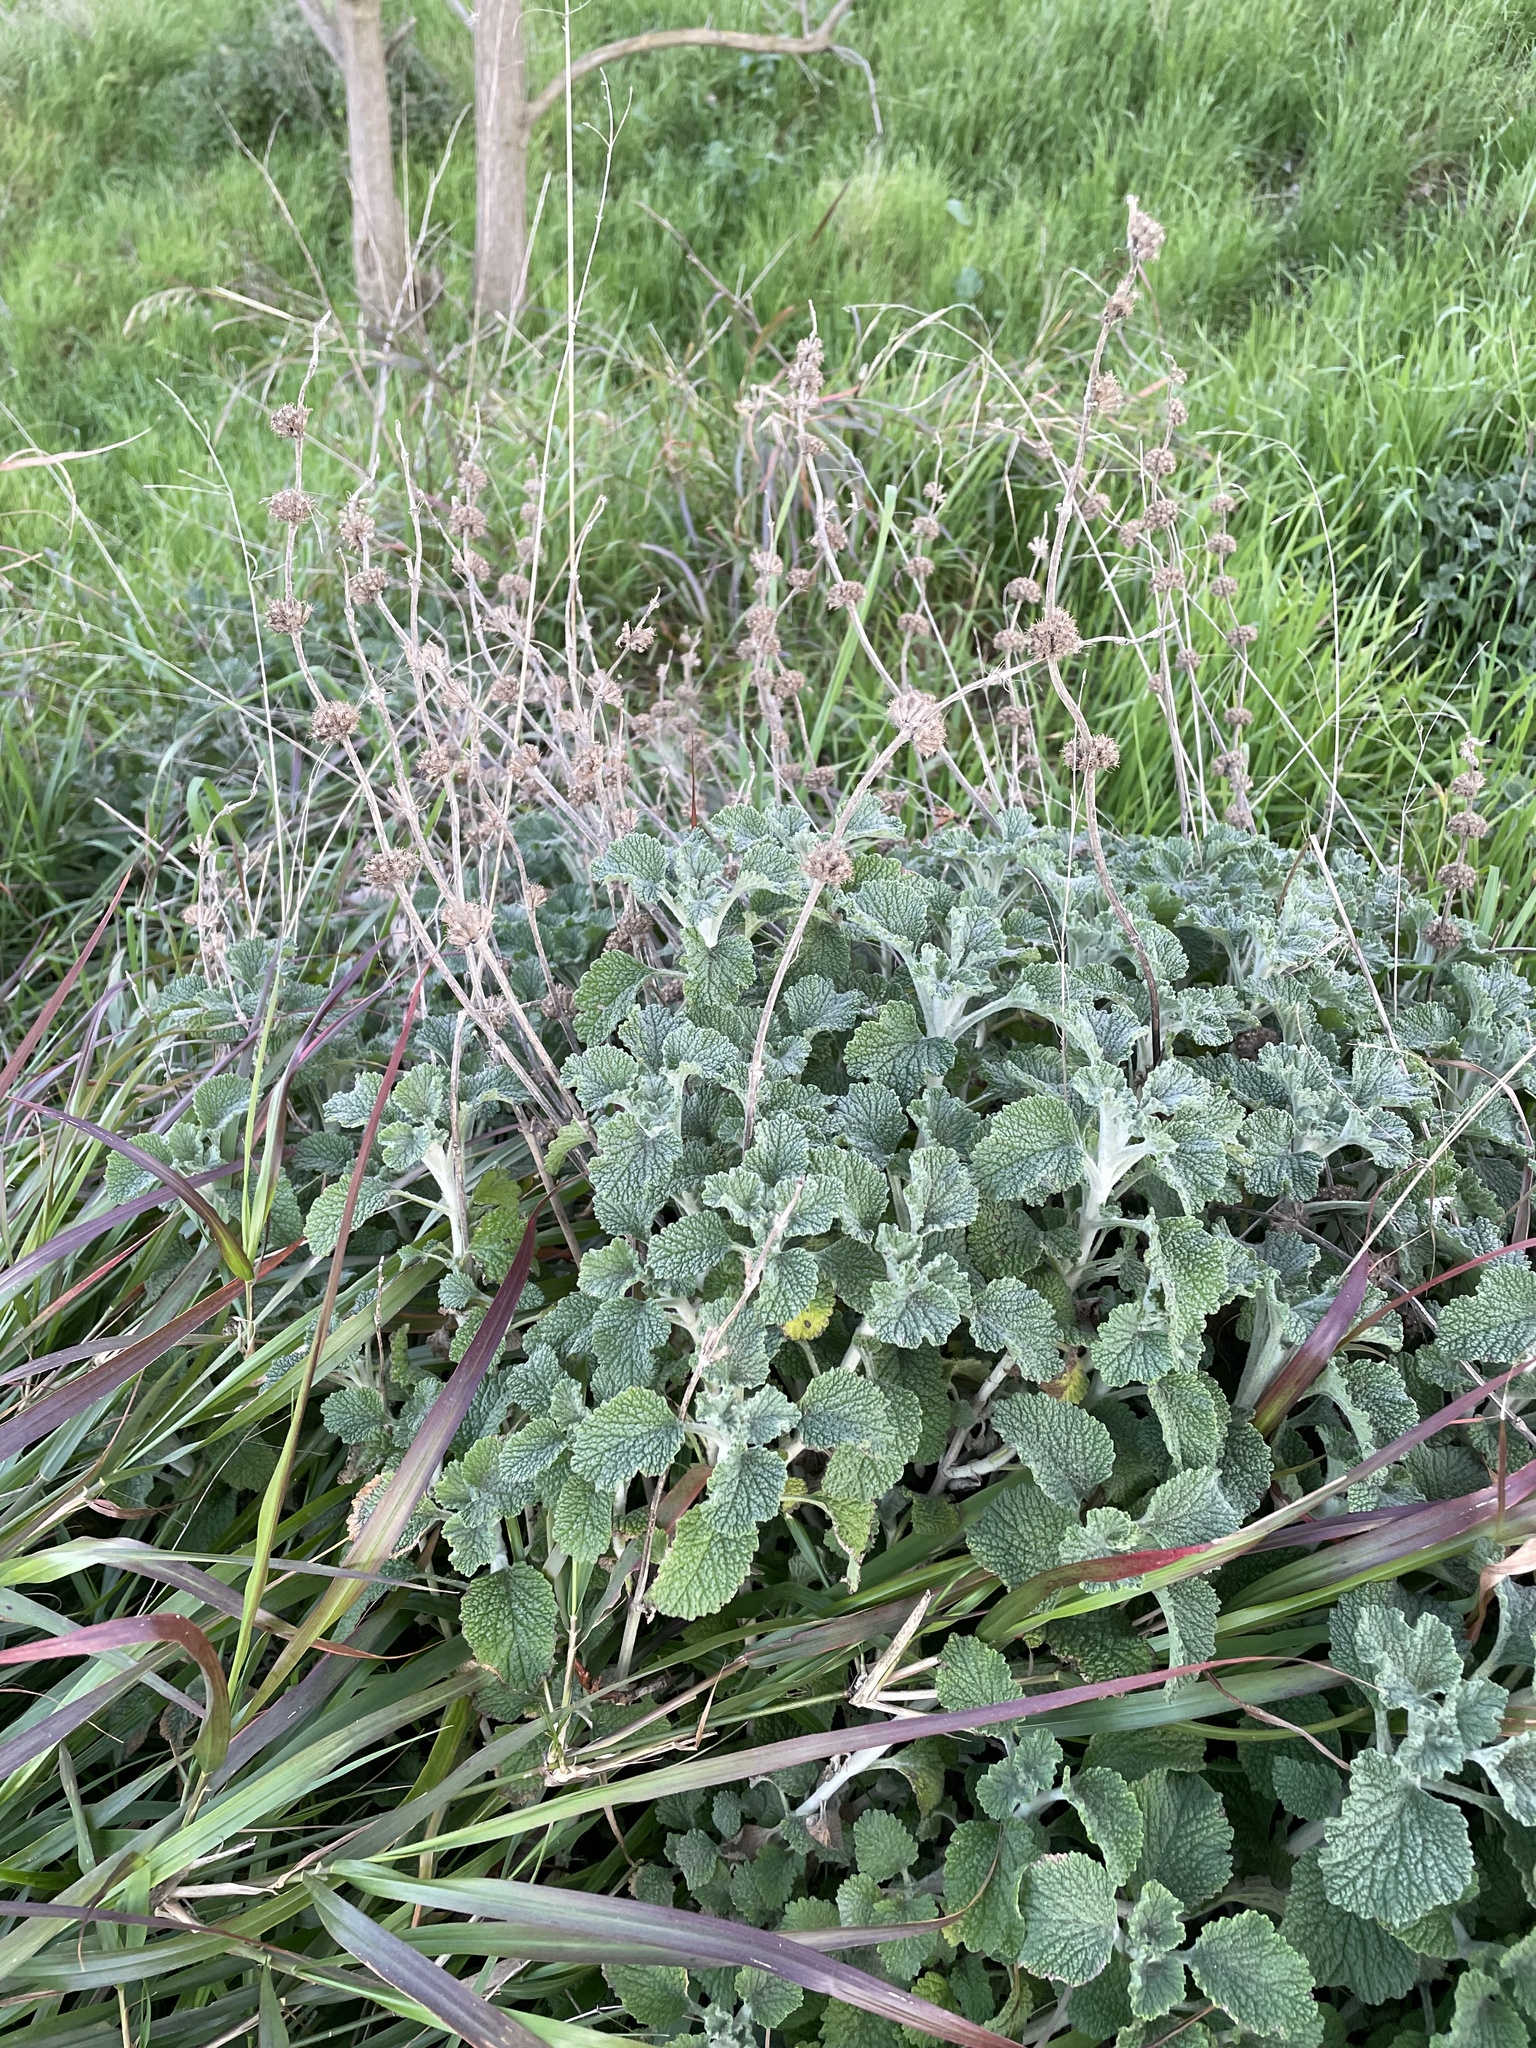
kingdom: Plantae
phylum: Tracheophyta
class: Magnoliopsida
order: Lamiales
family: Lamiaceae
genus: Marrubium
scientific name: Marrubium vulgare
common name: Horehound
